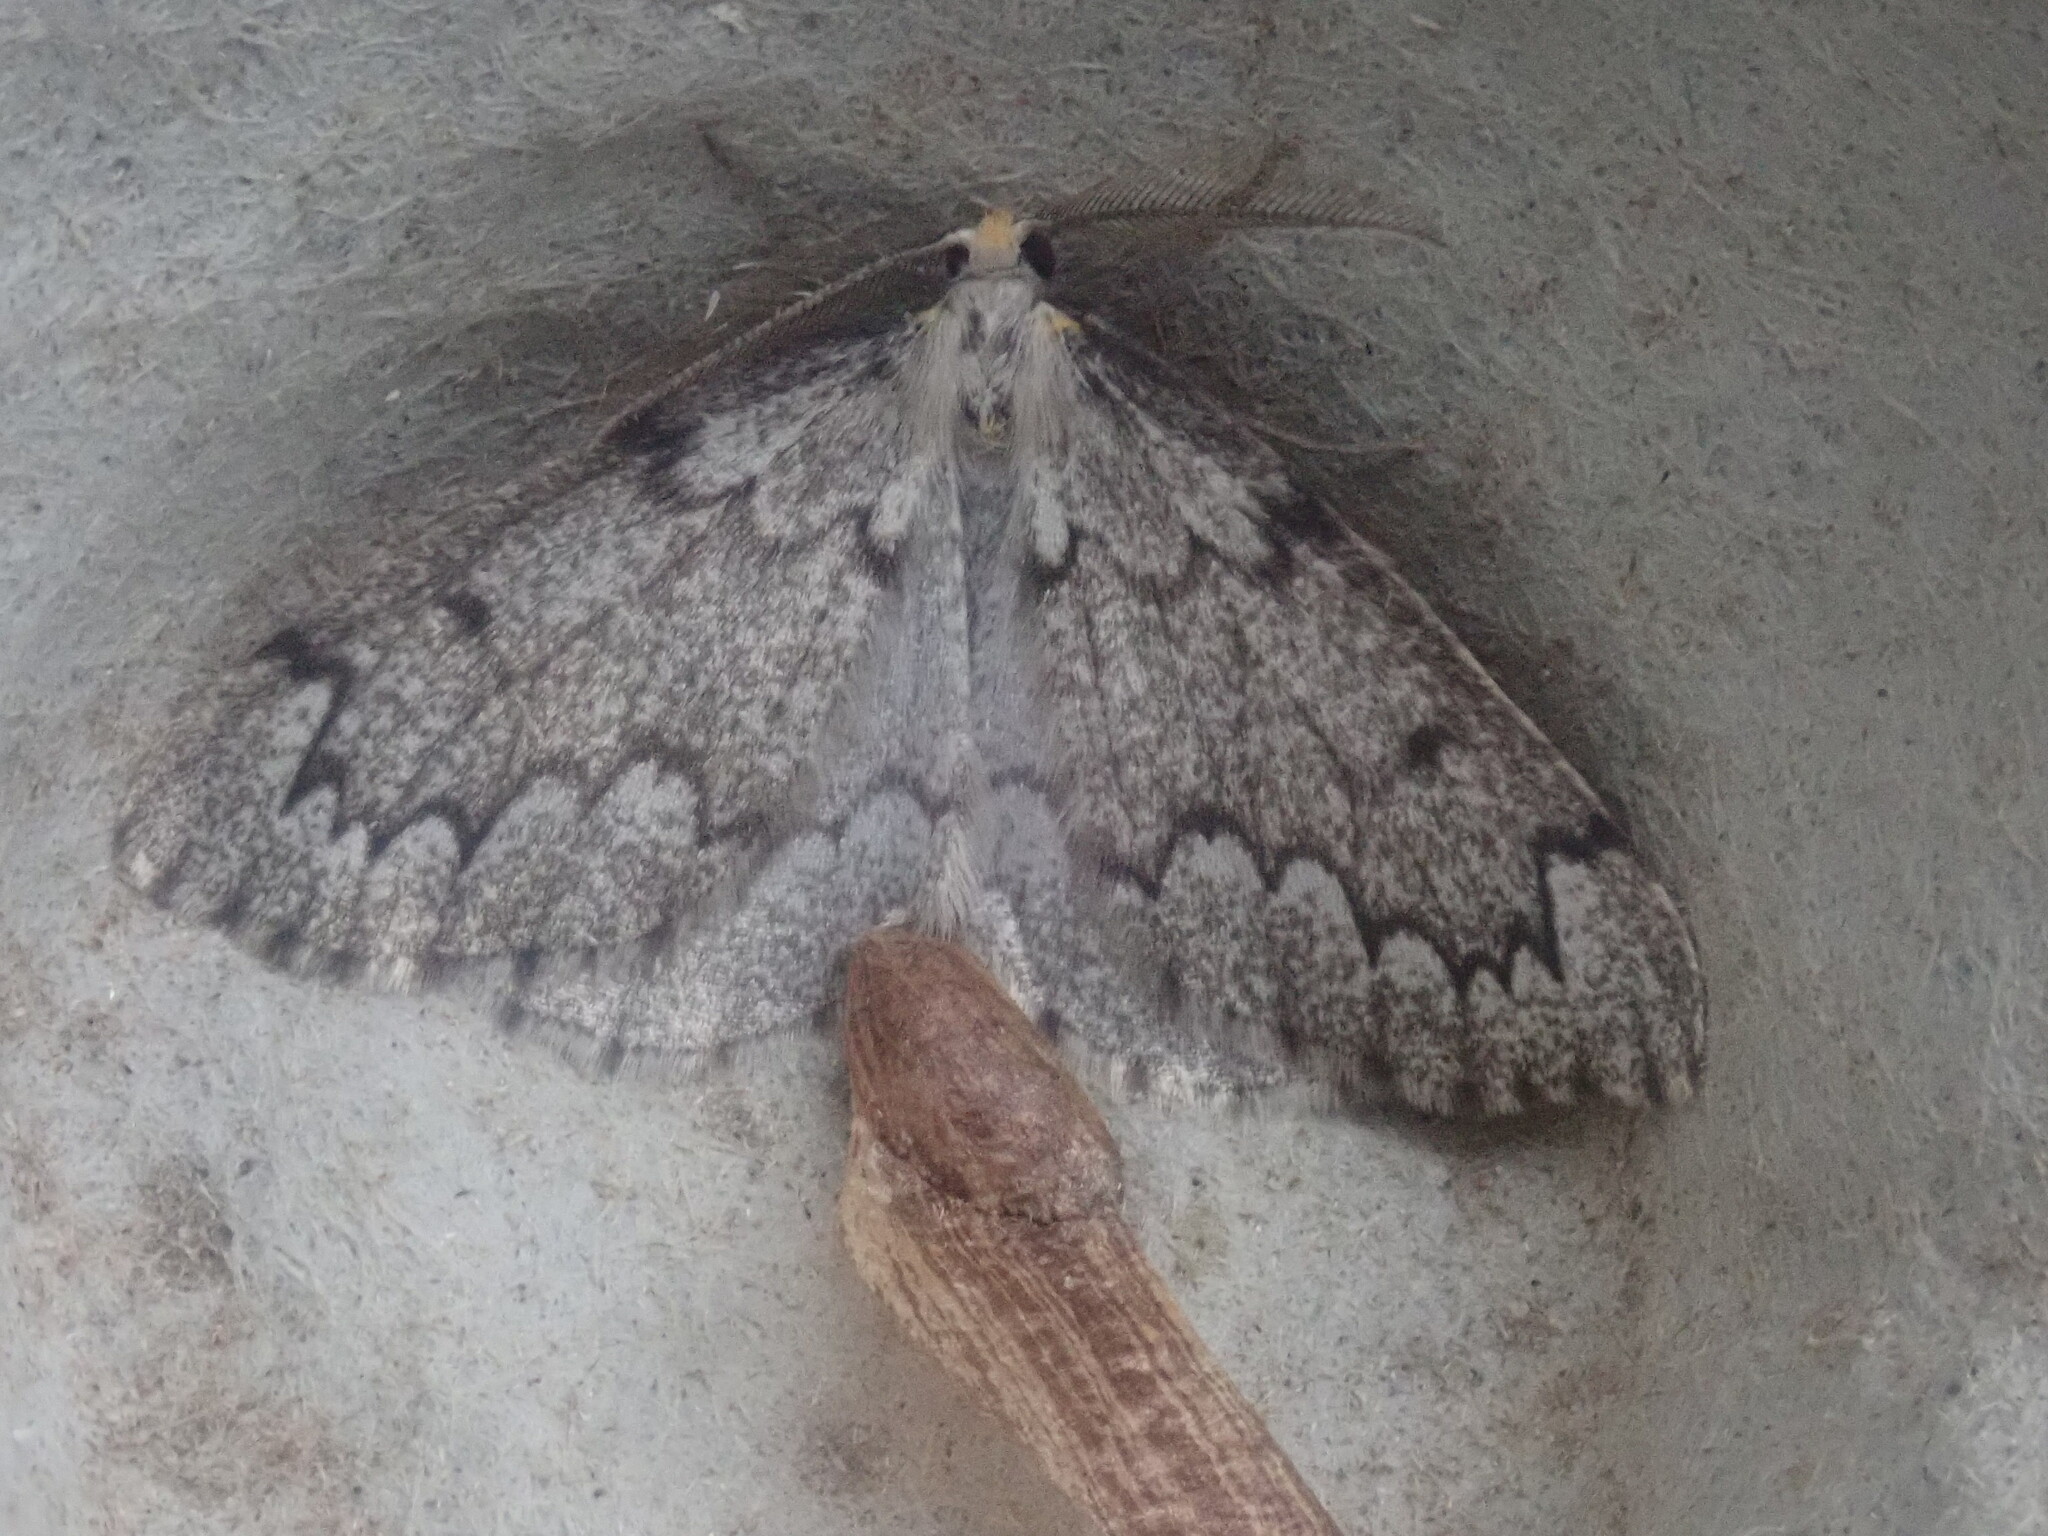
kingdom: Animalia
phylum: Arthropoda
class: Insecta
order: Lepidoptera
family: Geometridae
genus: Nepytia
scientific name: Nepytia canosaria
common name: False hemlock looper
